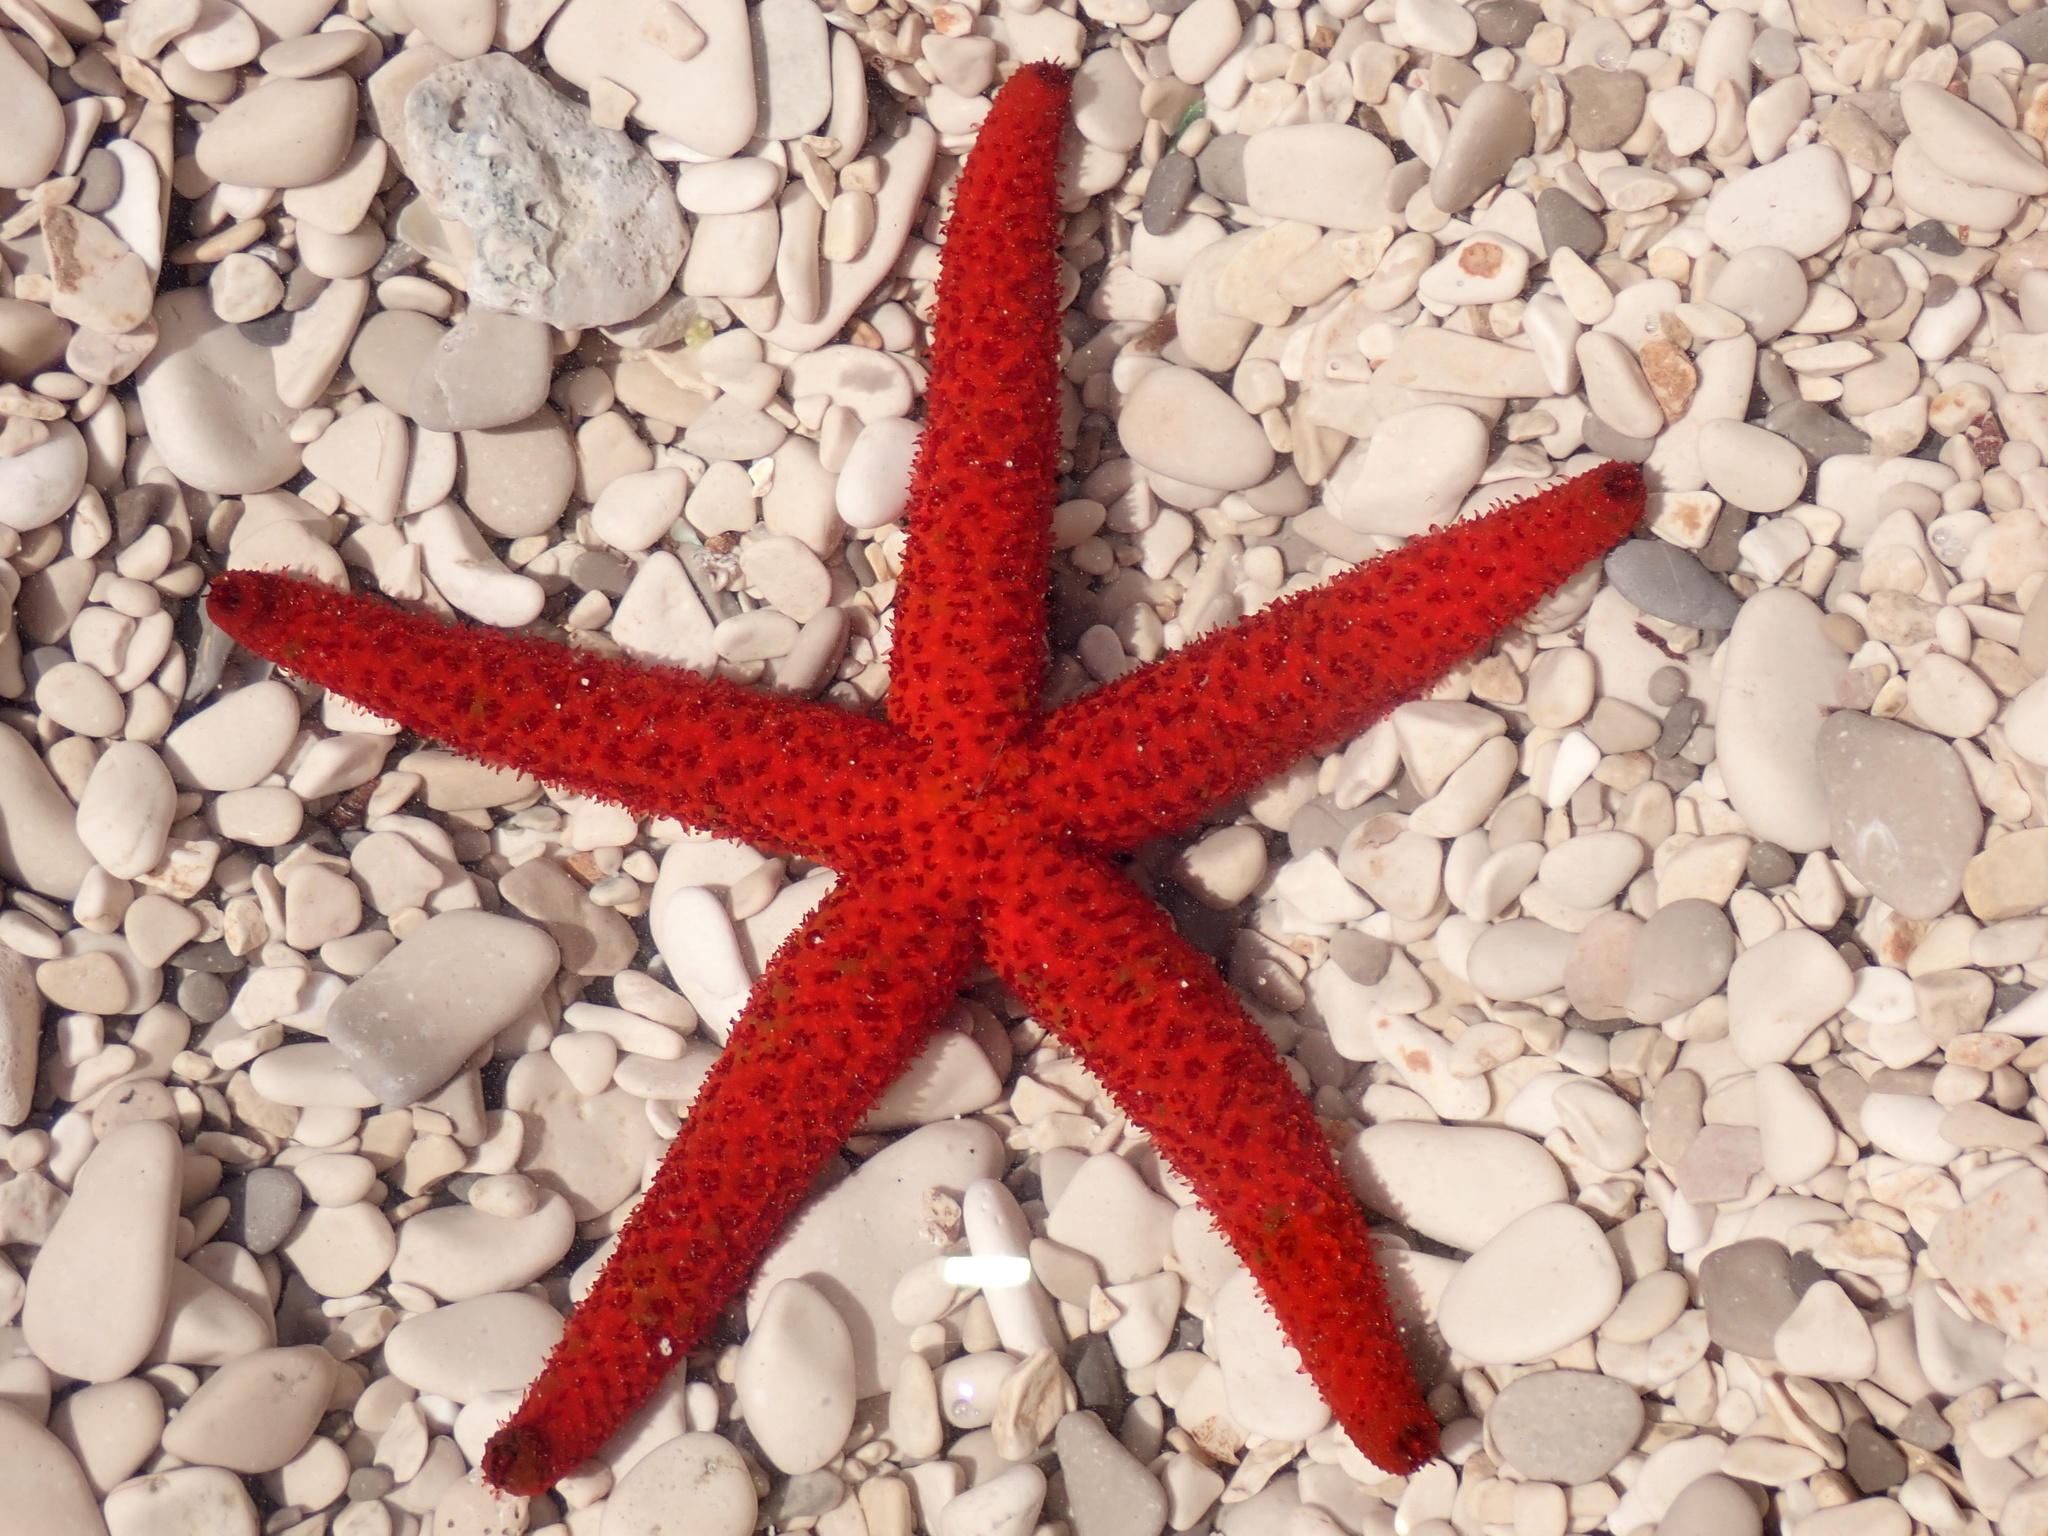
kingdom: Animalia
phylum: Echinodermata
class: Asteroidea
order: Spinulosida
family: Echinasteridae
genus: Echinaster
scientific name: Echinaster sepositus
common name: Red starfish
